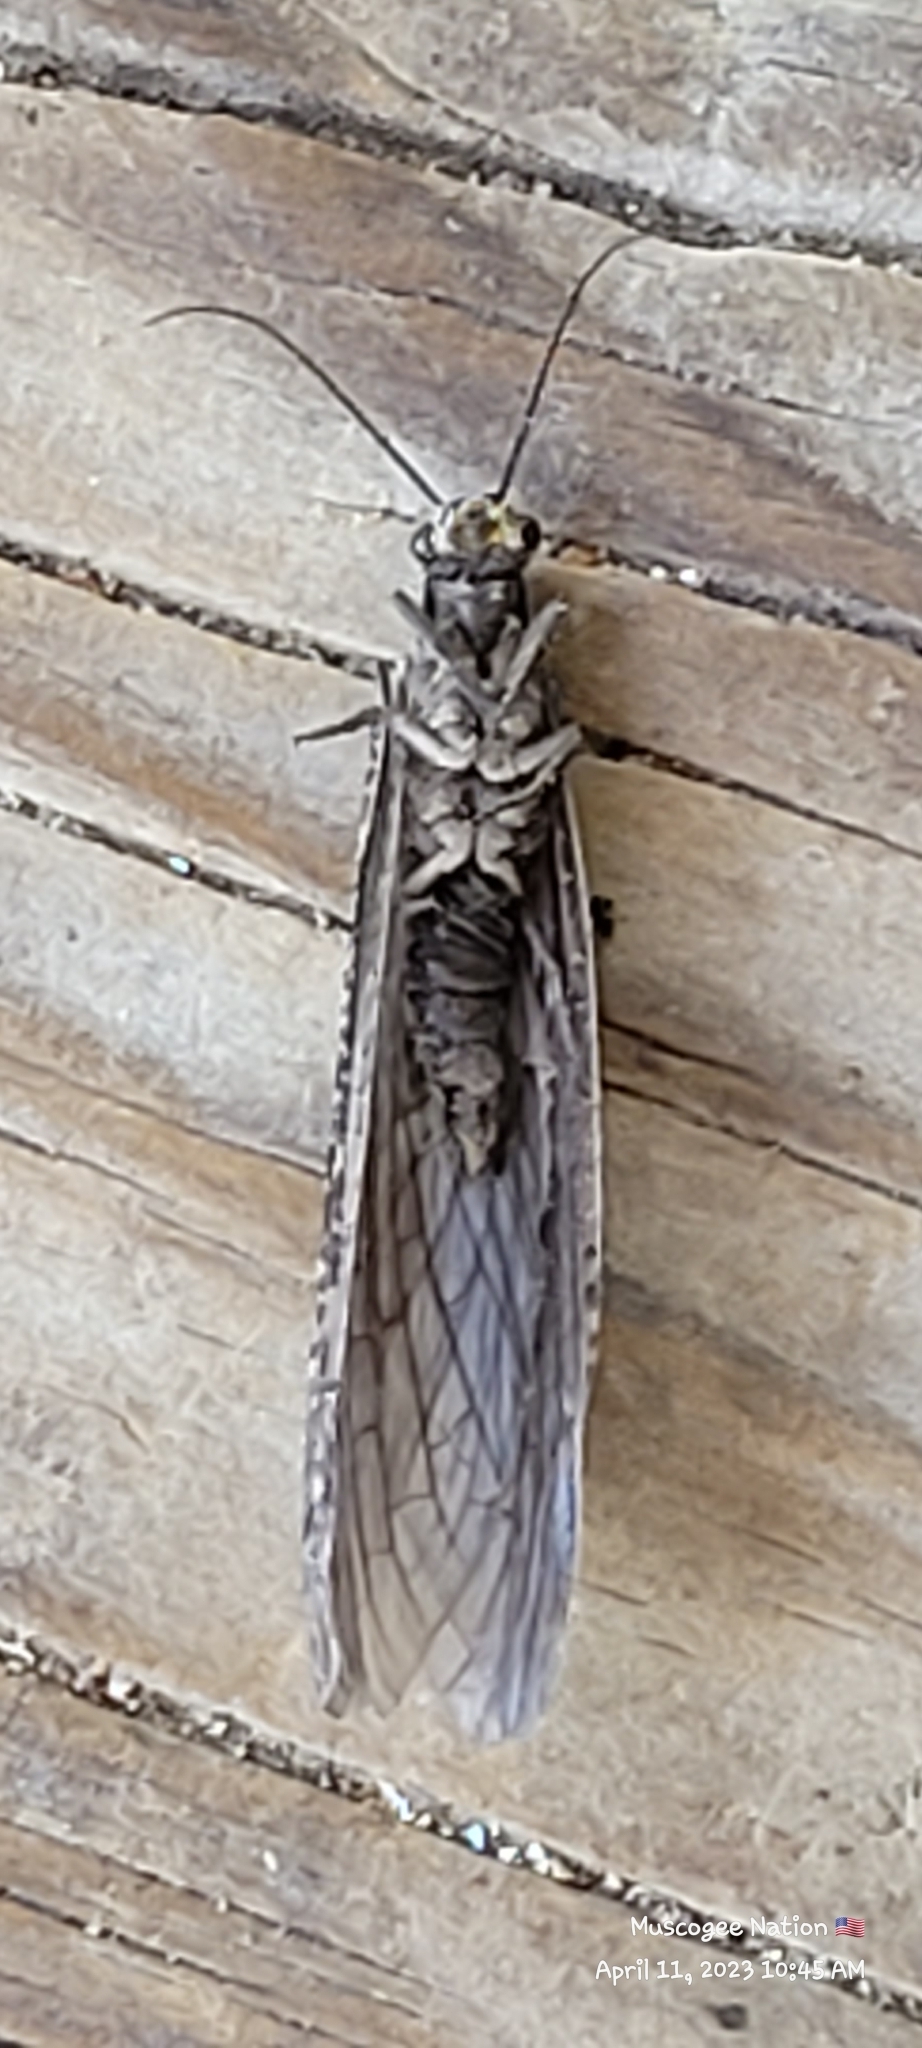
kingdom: Animalia
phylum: Arthropoda
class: Insecta
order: Megaloptera
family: Corydalidae
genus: Chauliodes
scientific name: Chauliodes rastricornis
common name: Spring fishfly
